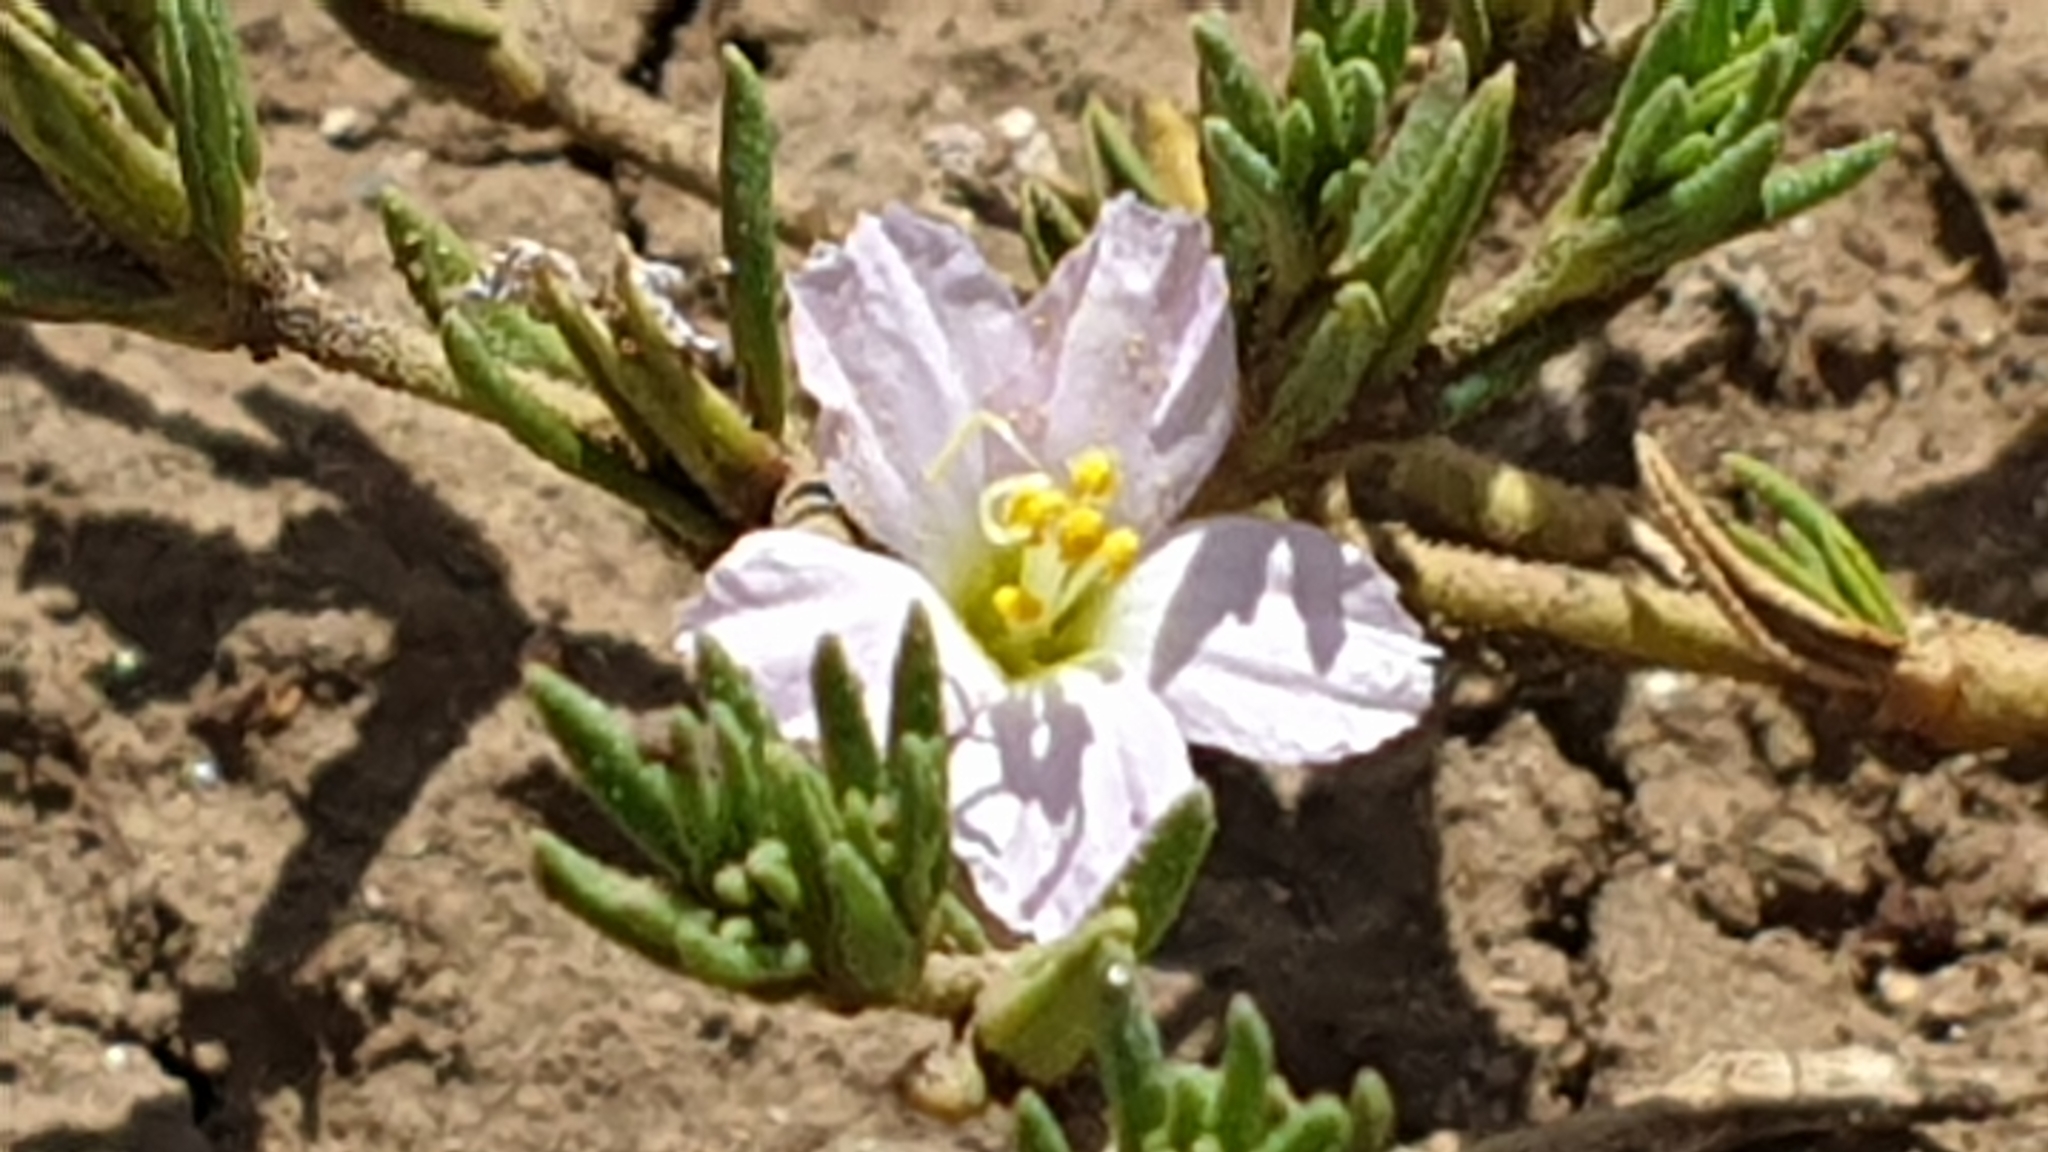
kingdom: Plantae
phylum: Tracheophyta
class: Magnoliopsida
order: Caryophyllales
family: Frankeniaceae
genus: Frankenia
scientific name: Frankenia pauciflora
